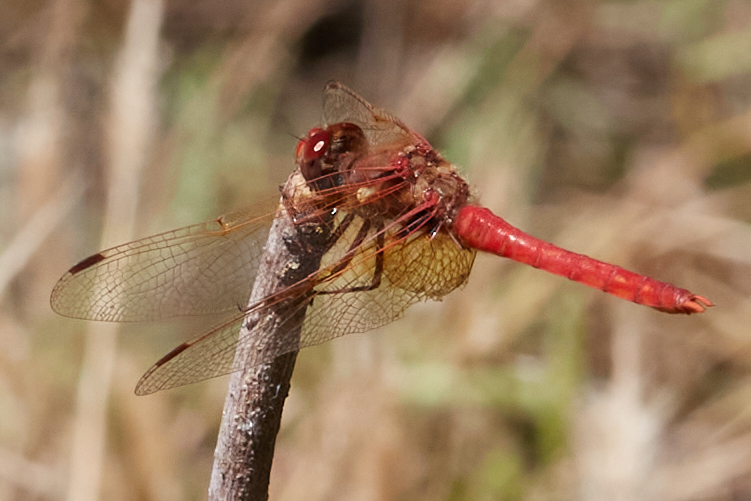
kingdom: Animalia
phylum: Arthropoda
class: Insecta
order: Odonata
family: Libellulidae
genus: Sympetrum
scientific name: Sympetrum illotum
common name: Cardinal meadowhawk
